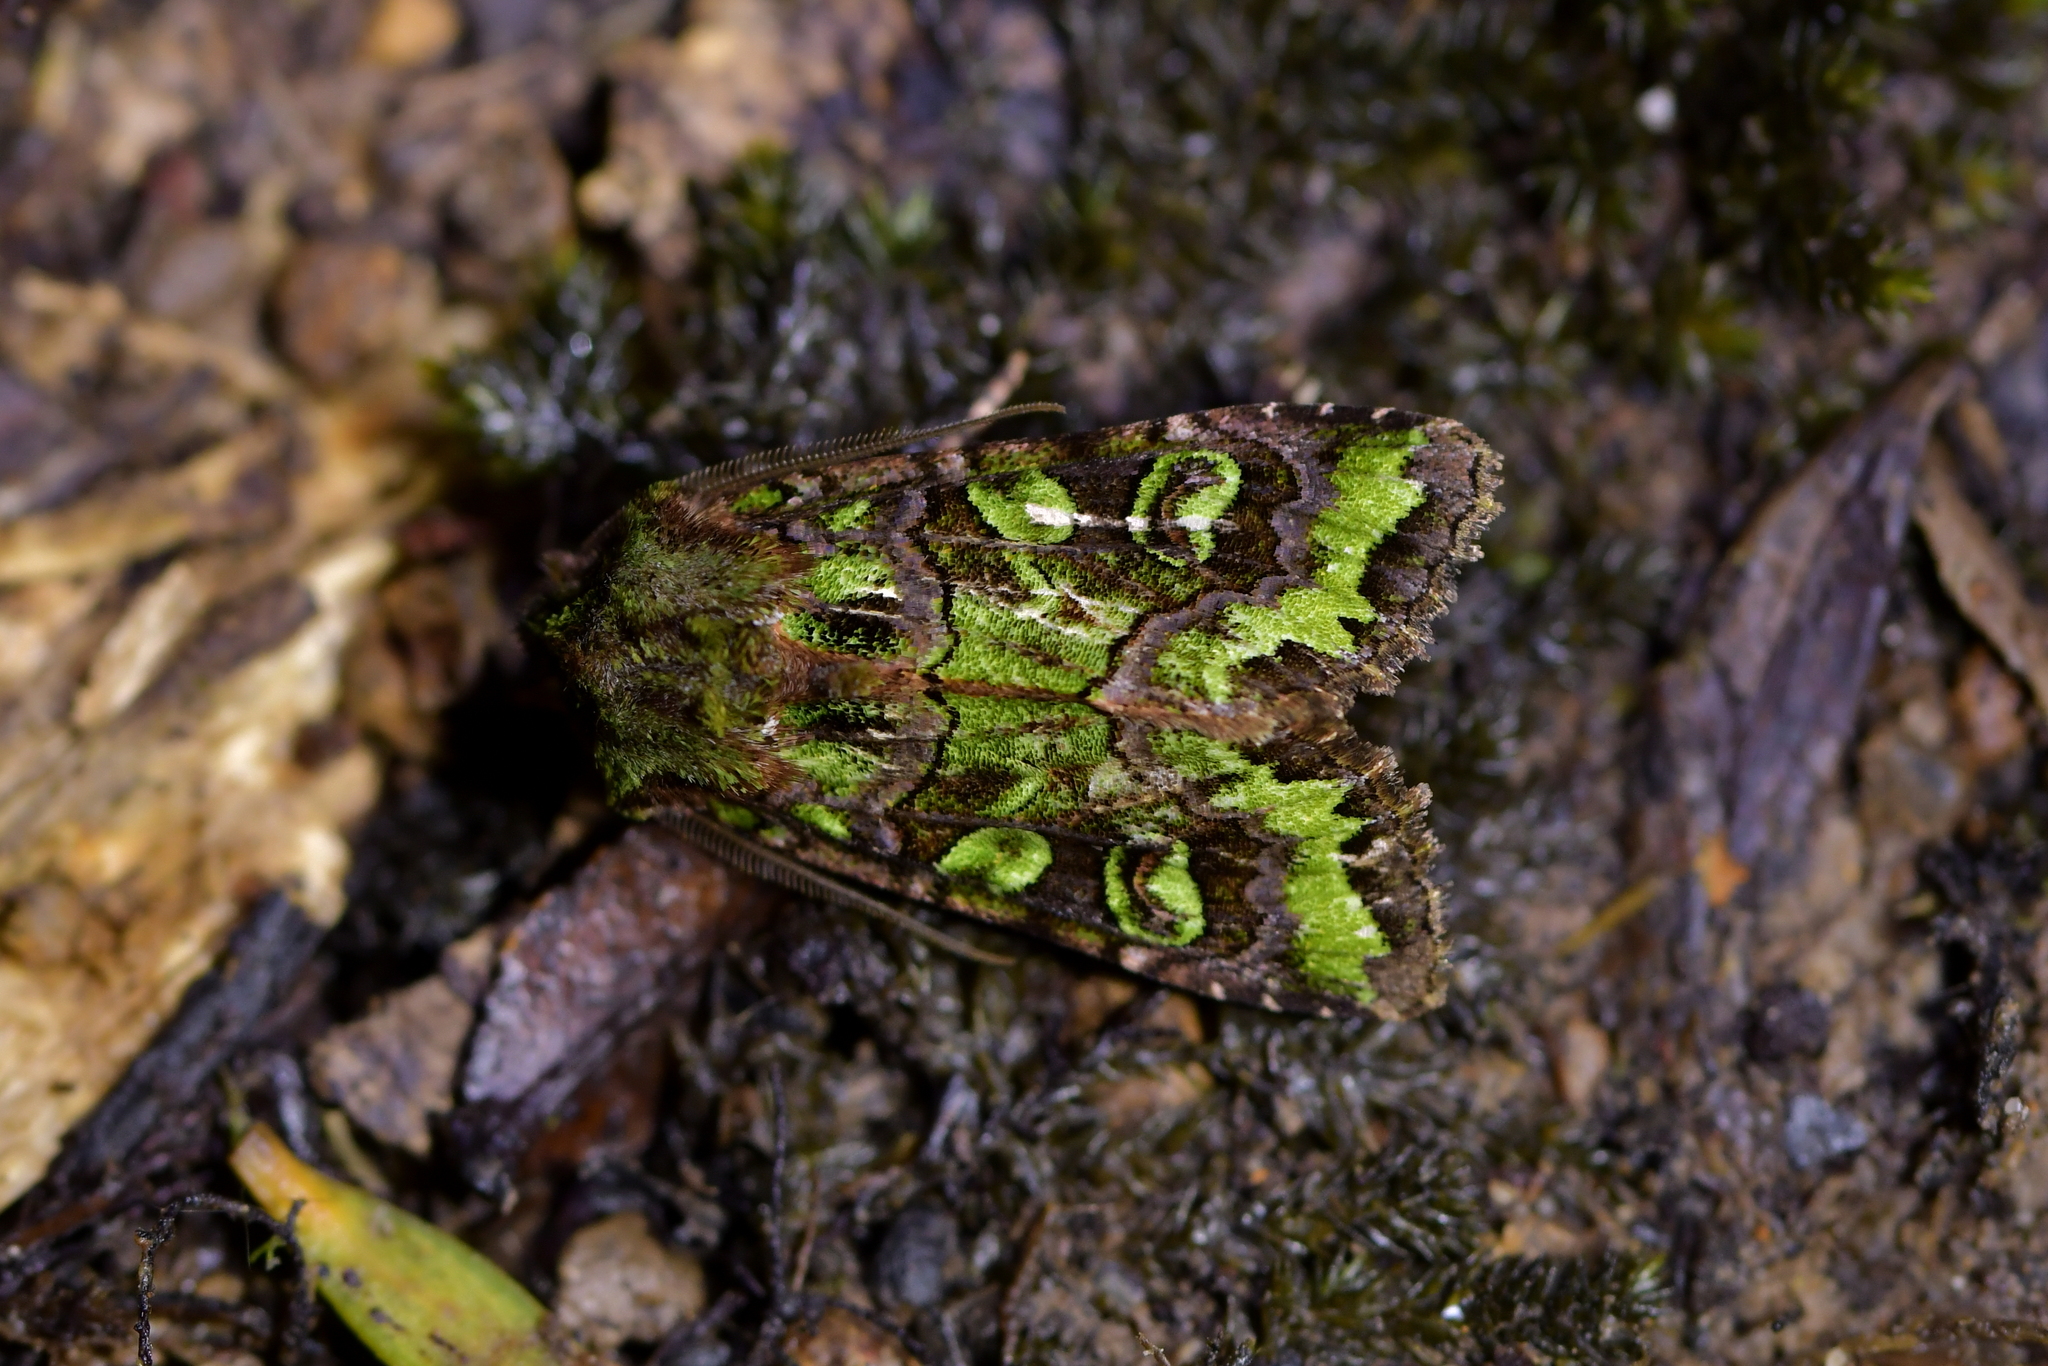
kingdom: Animalia
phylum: Arthropoda
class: Insecta
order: Lepidoptera
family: Noctuidae
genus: Ichneutica
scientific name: Ichneutica chlorodonta
